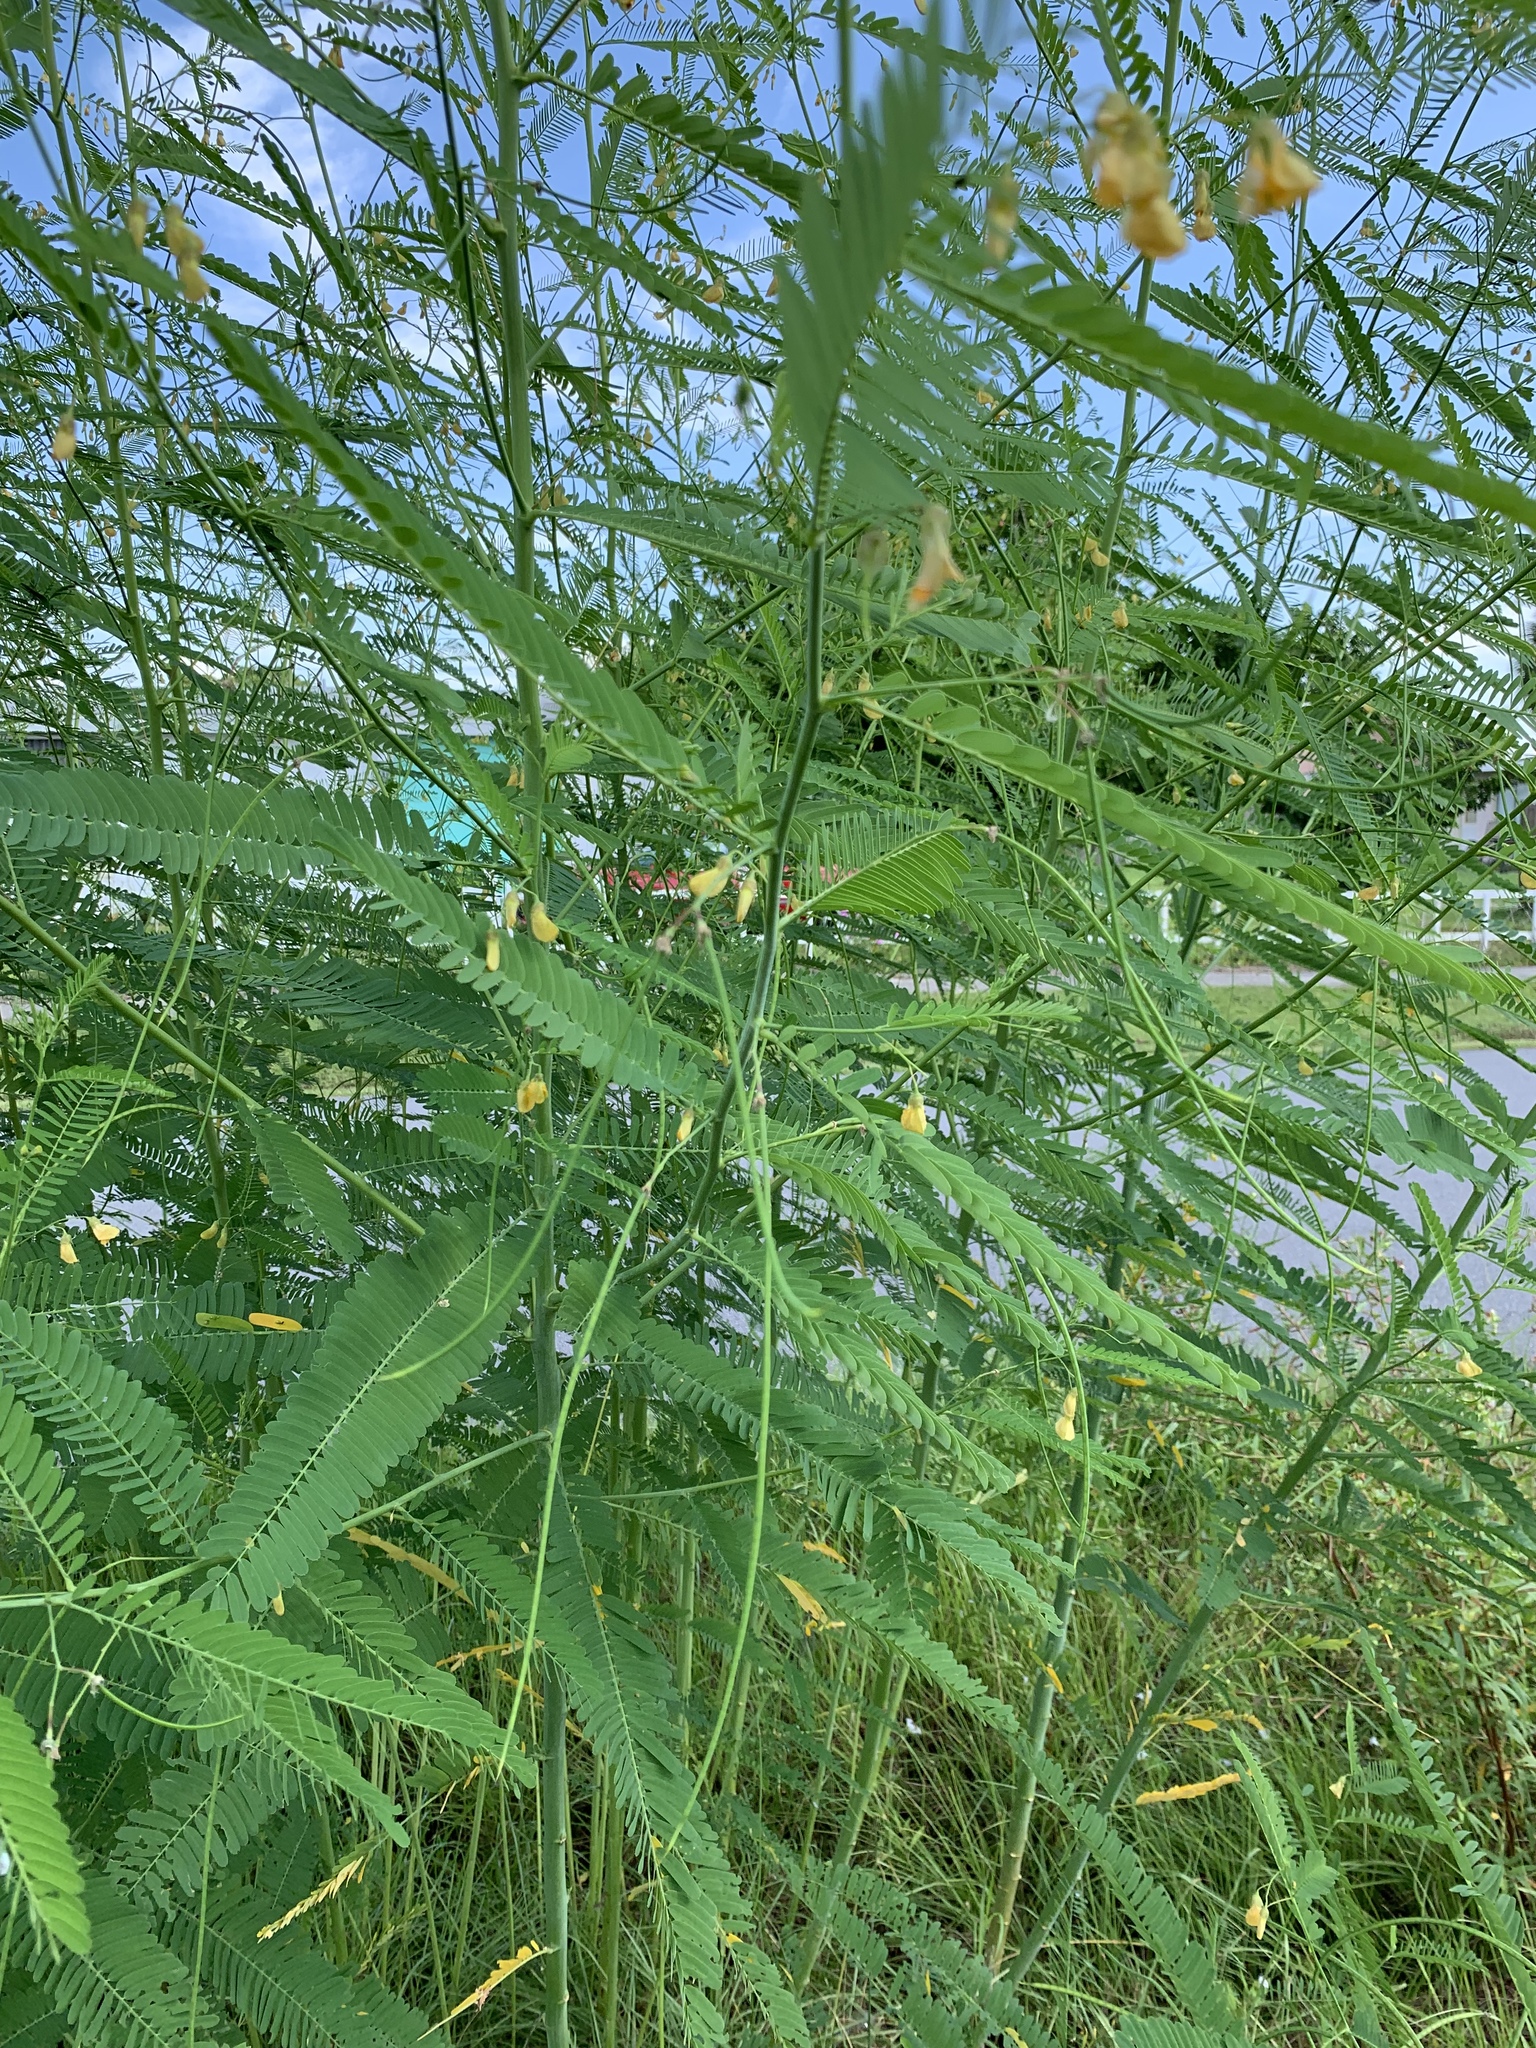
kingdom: Plantae
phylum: Tracheophyta
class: Magnoliopsida
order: Fabales
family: Fabaceae
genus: Sesbania
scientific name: Sesbania herbacea
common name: Bigpod sesbania
